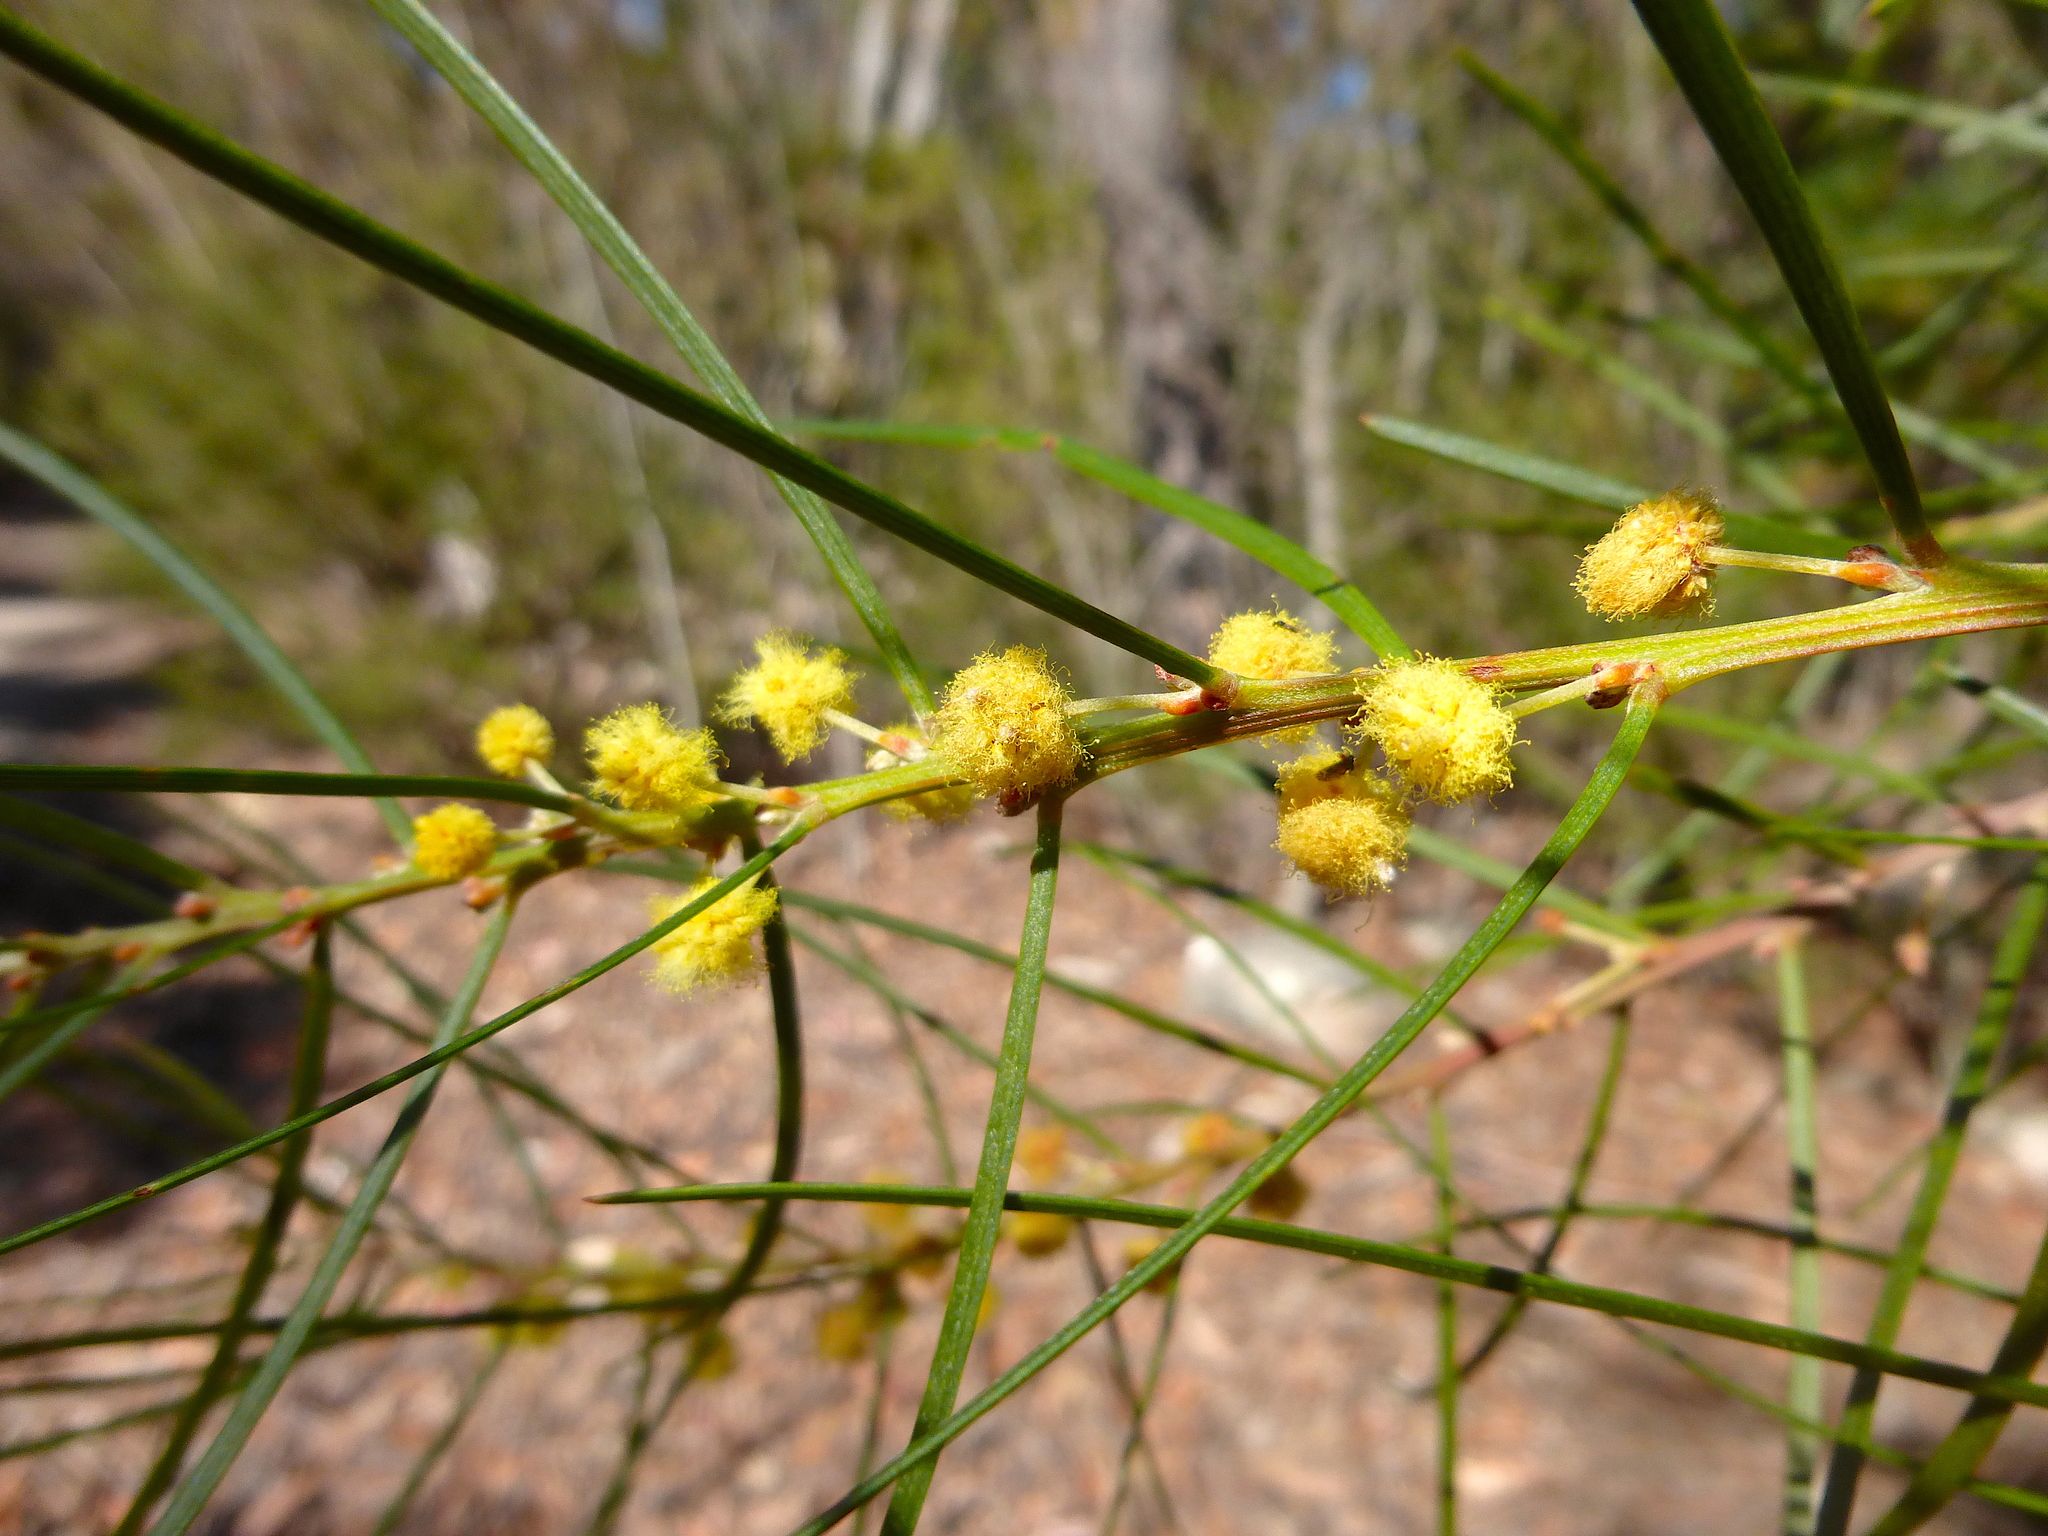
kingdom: Plantae
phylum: Tracheophyta
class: Magnoliopsida
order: Fabales
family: Fabaceae
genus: Acacia
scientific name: Acacia elongata
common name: Swamp wattle
